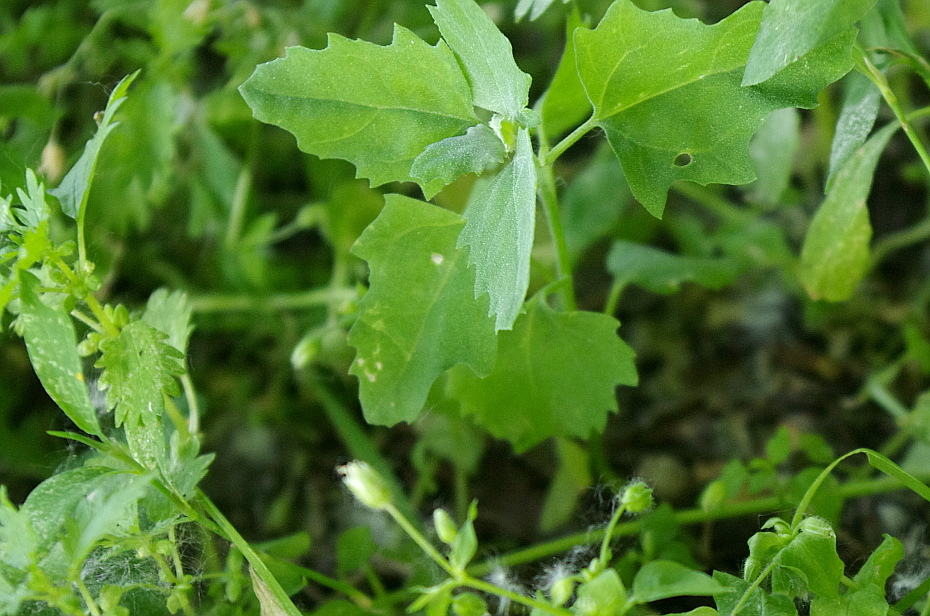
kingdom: Plantae
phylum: Tracheophyta
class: Magnoliopsida
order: Caryophyllales
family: Amaranthaceae
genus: Chenopodium
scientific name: Chenopodium album
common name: Fat-hen
